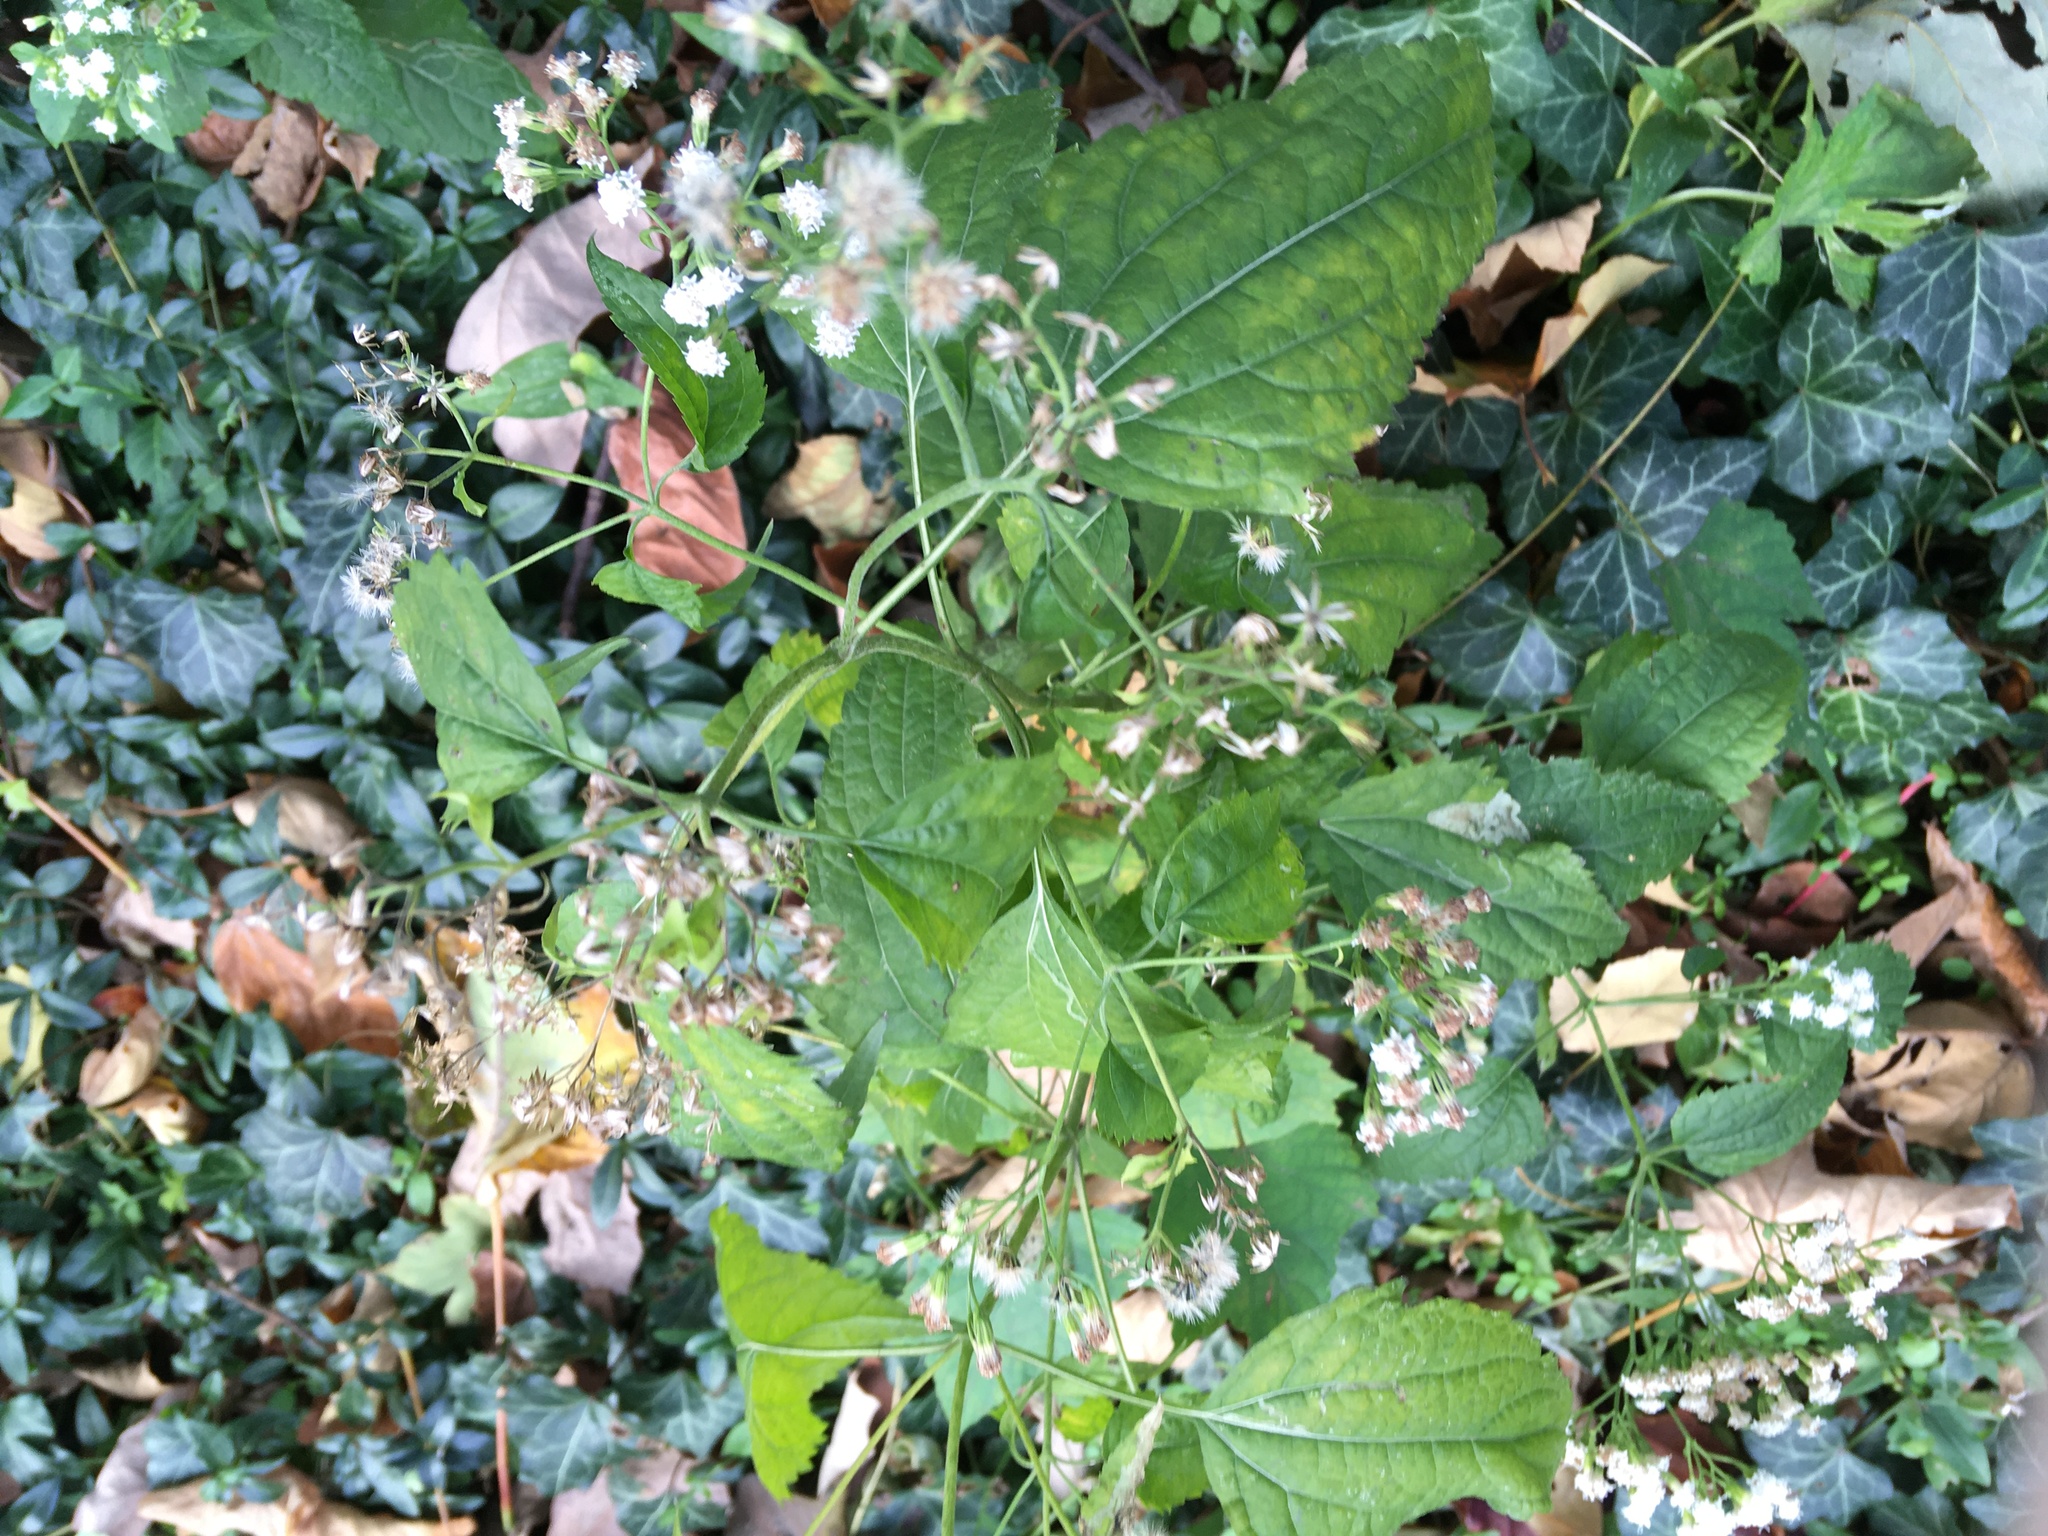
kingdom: Plantae
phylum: Tracheophyta
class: Magnoliopsida
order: Asterales
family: Asteraceae
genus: Ageratina
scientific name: Ageratina altissima
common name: White snakeroot
